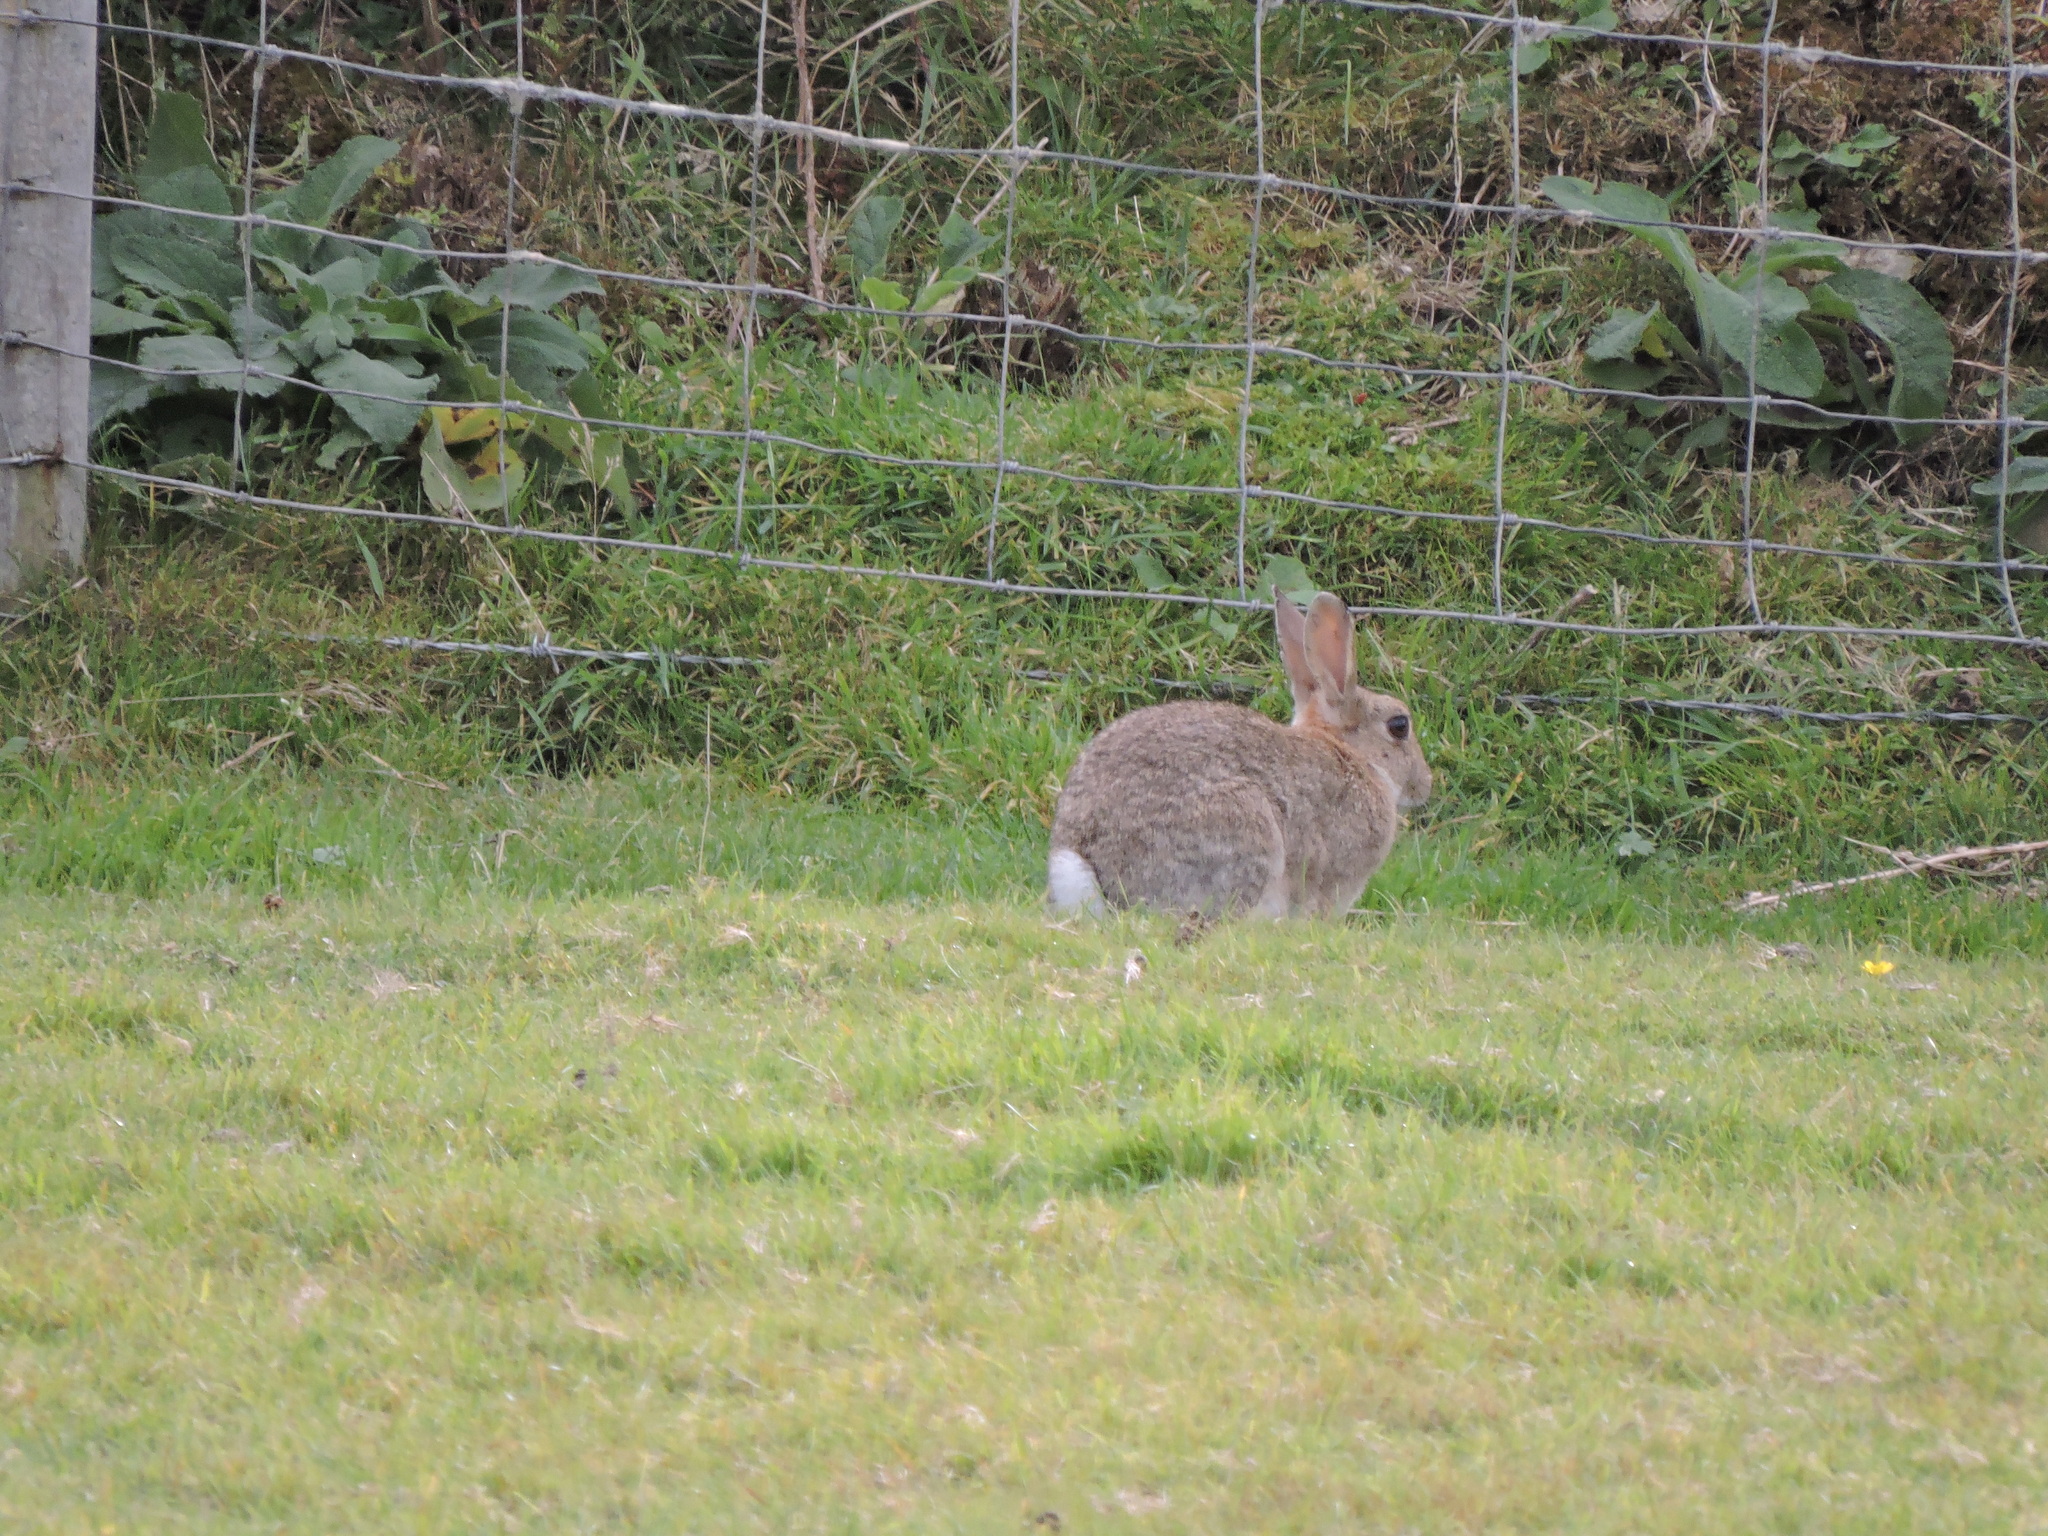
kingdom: Animalia
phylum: Chordata
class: Mammalia
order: Lagomorpha
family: Leporidae
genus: Oryctolagus
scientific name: Oryctolagus cuniculus
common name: European rabbit
